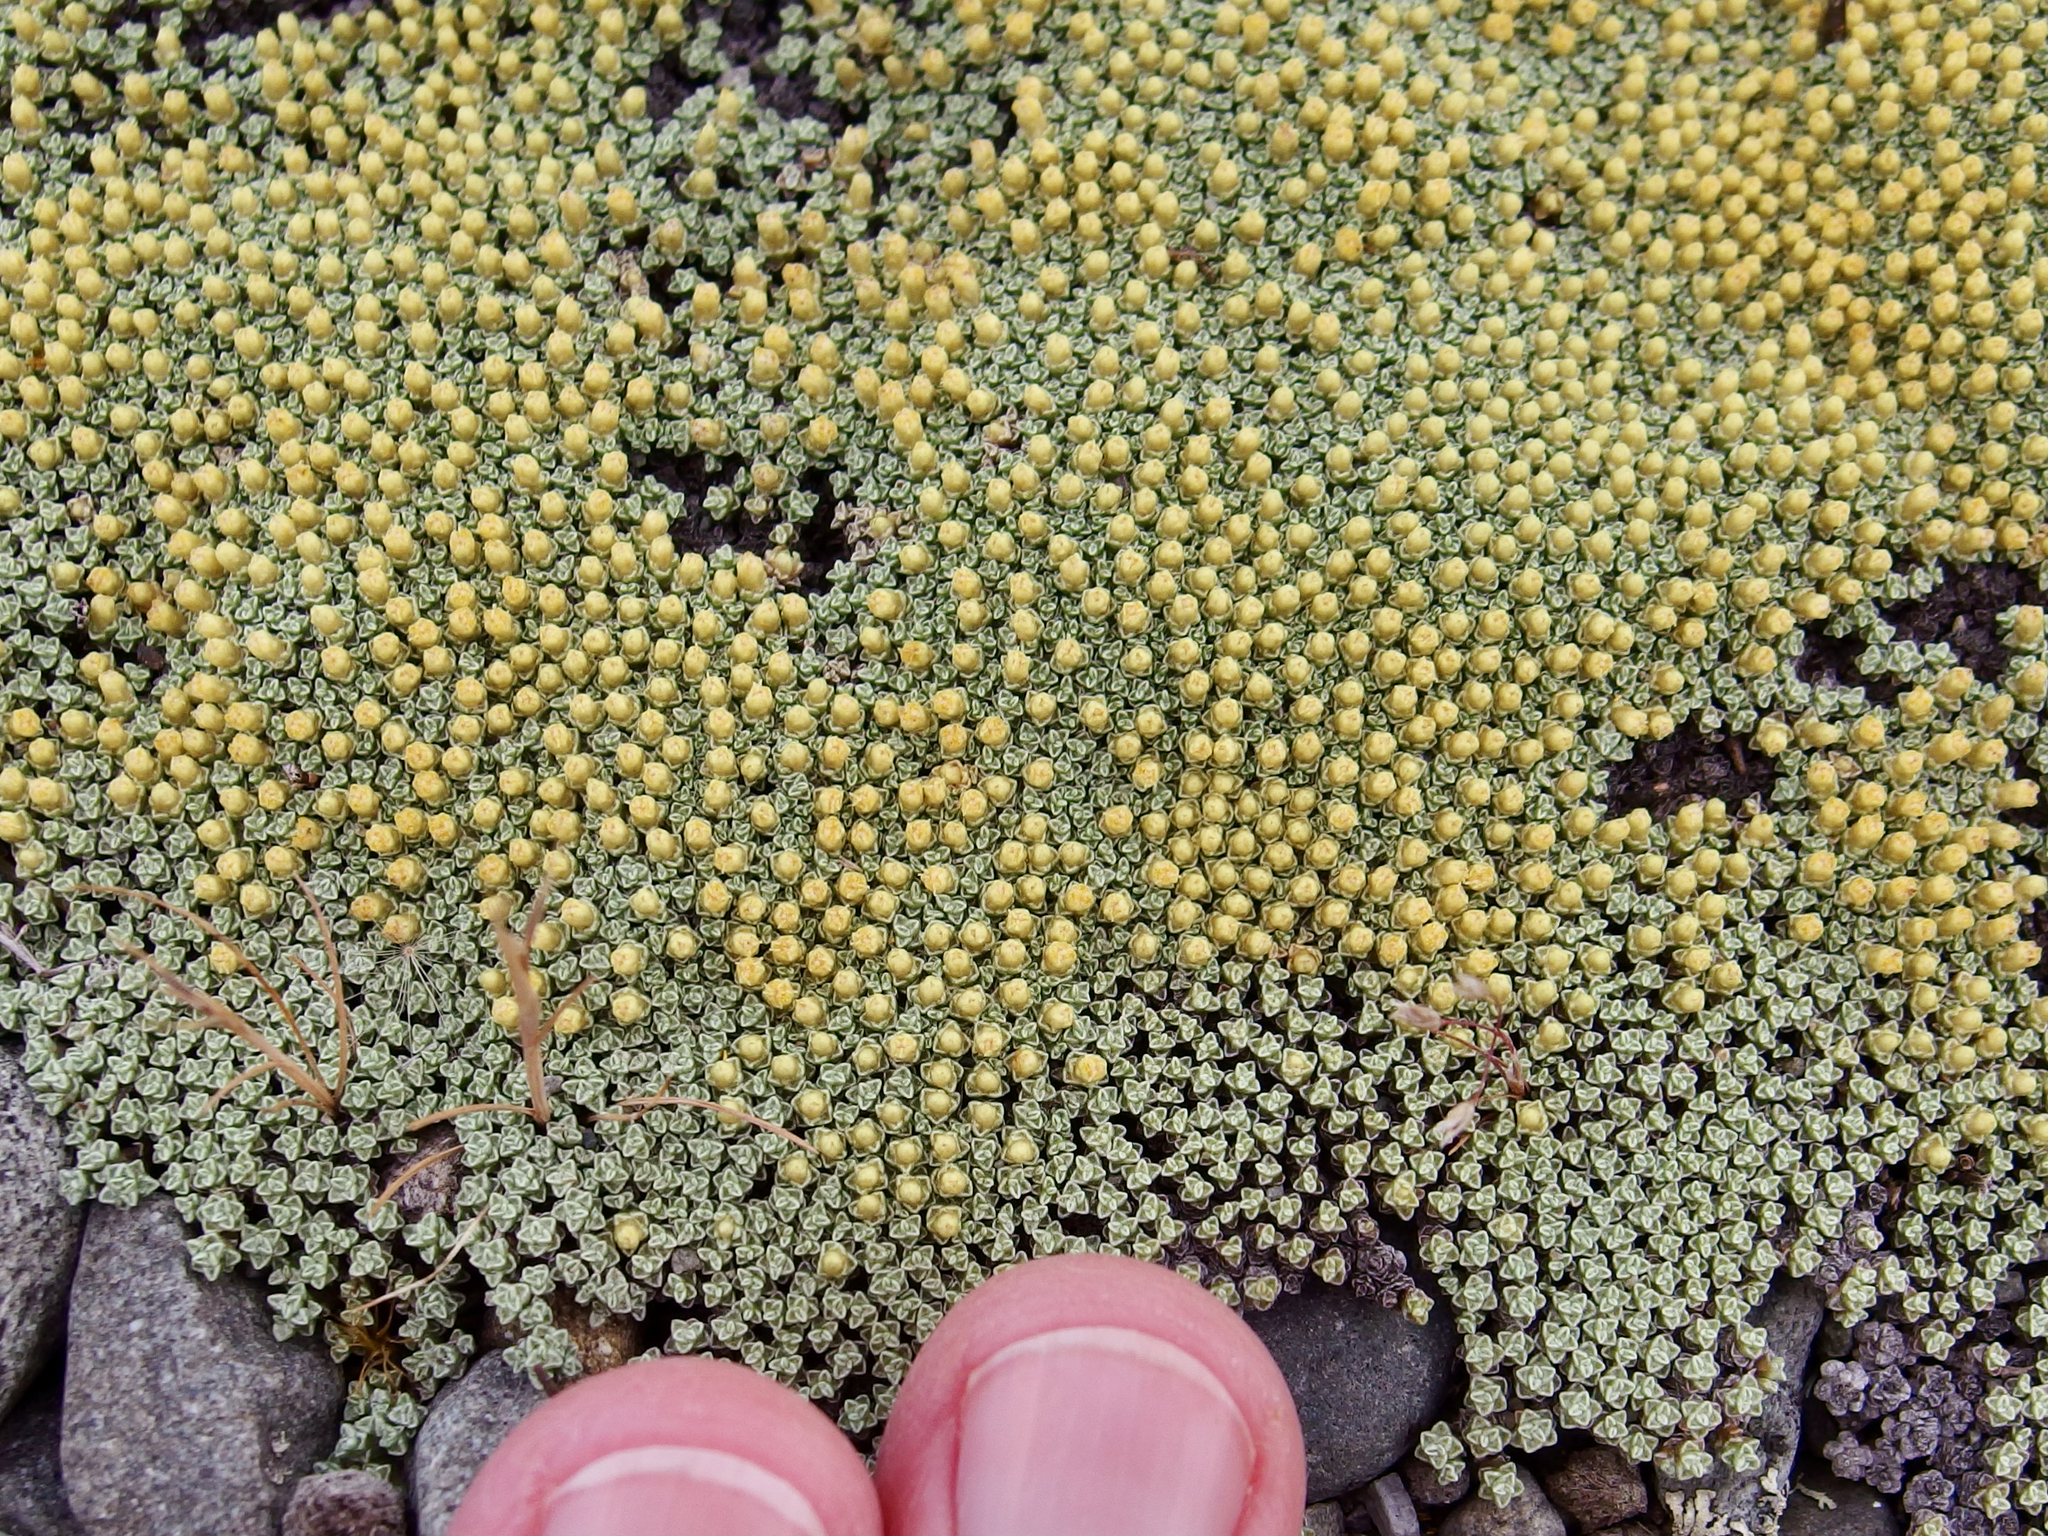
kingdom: Plantae
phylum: Tracheophyta
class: Magnoliopsida
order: Asterales
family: Asteraceae
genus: Raoulia
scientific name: Raoulia australis
